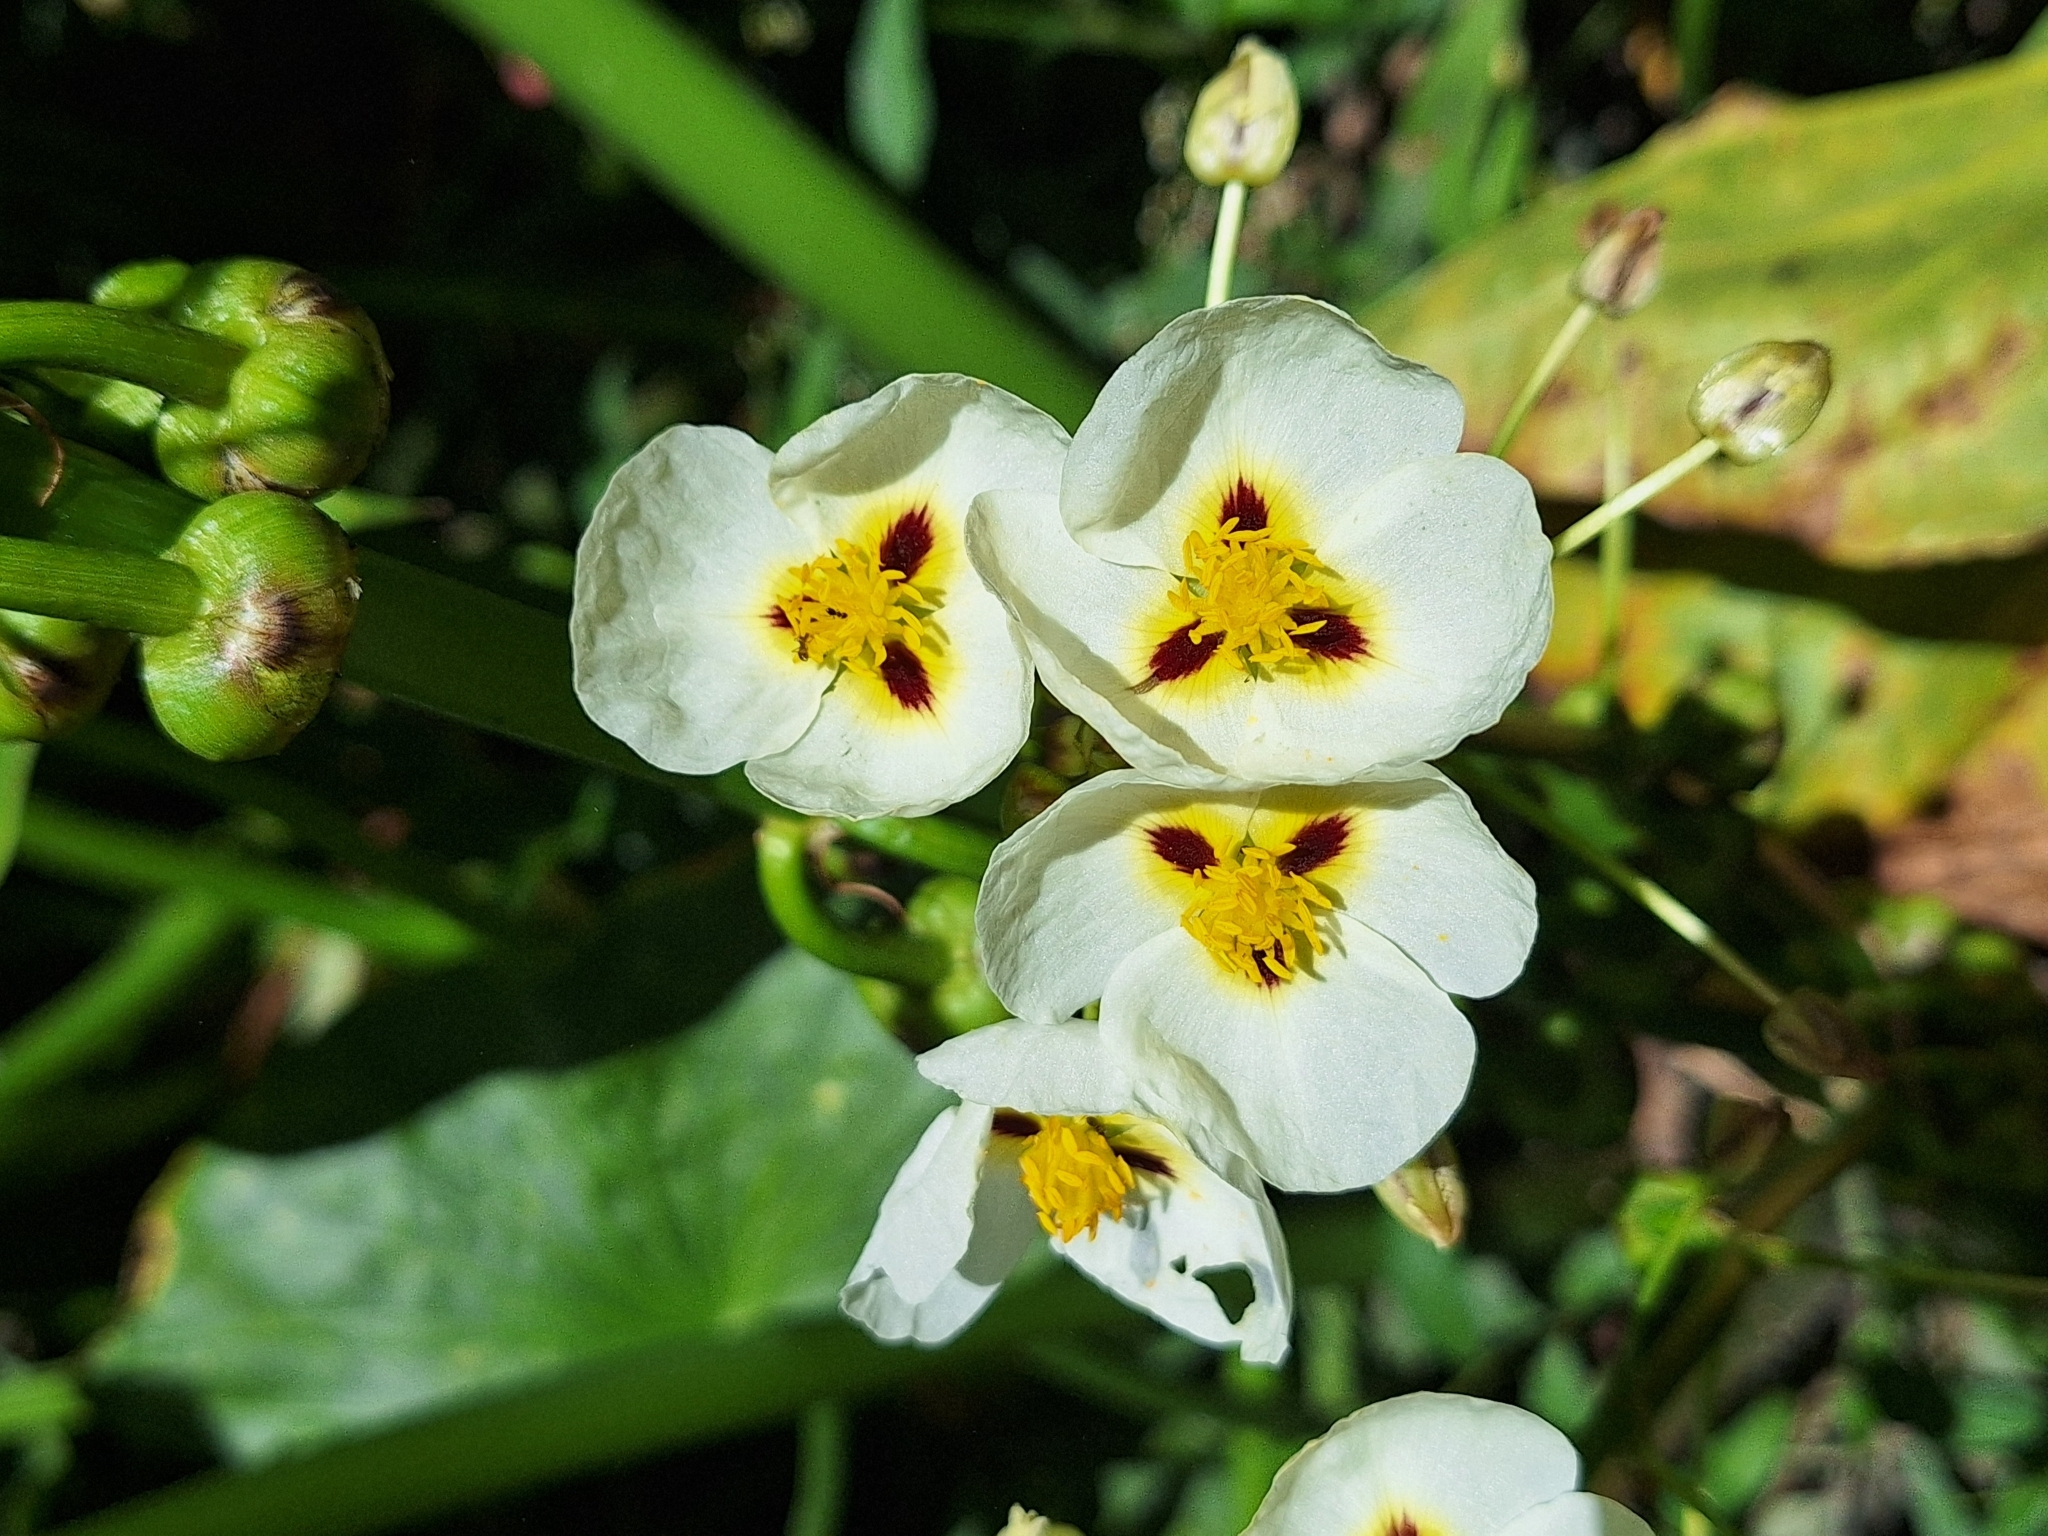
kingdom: Plantae
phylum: Tracheophyta
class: Liliopsida
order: Alismatales
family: Alismataceae
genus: Sagittaria
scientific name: Sagittaria montevidensis
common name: Giant arrowhead
